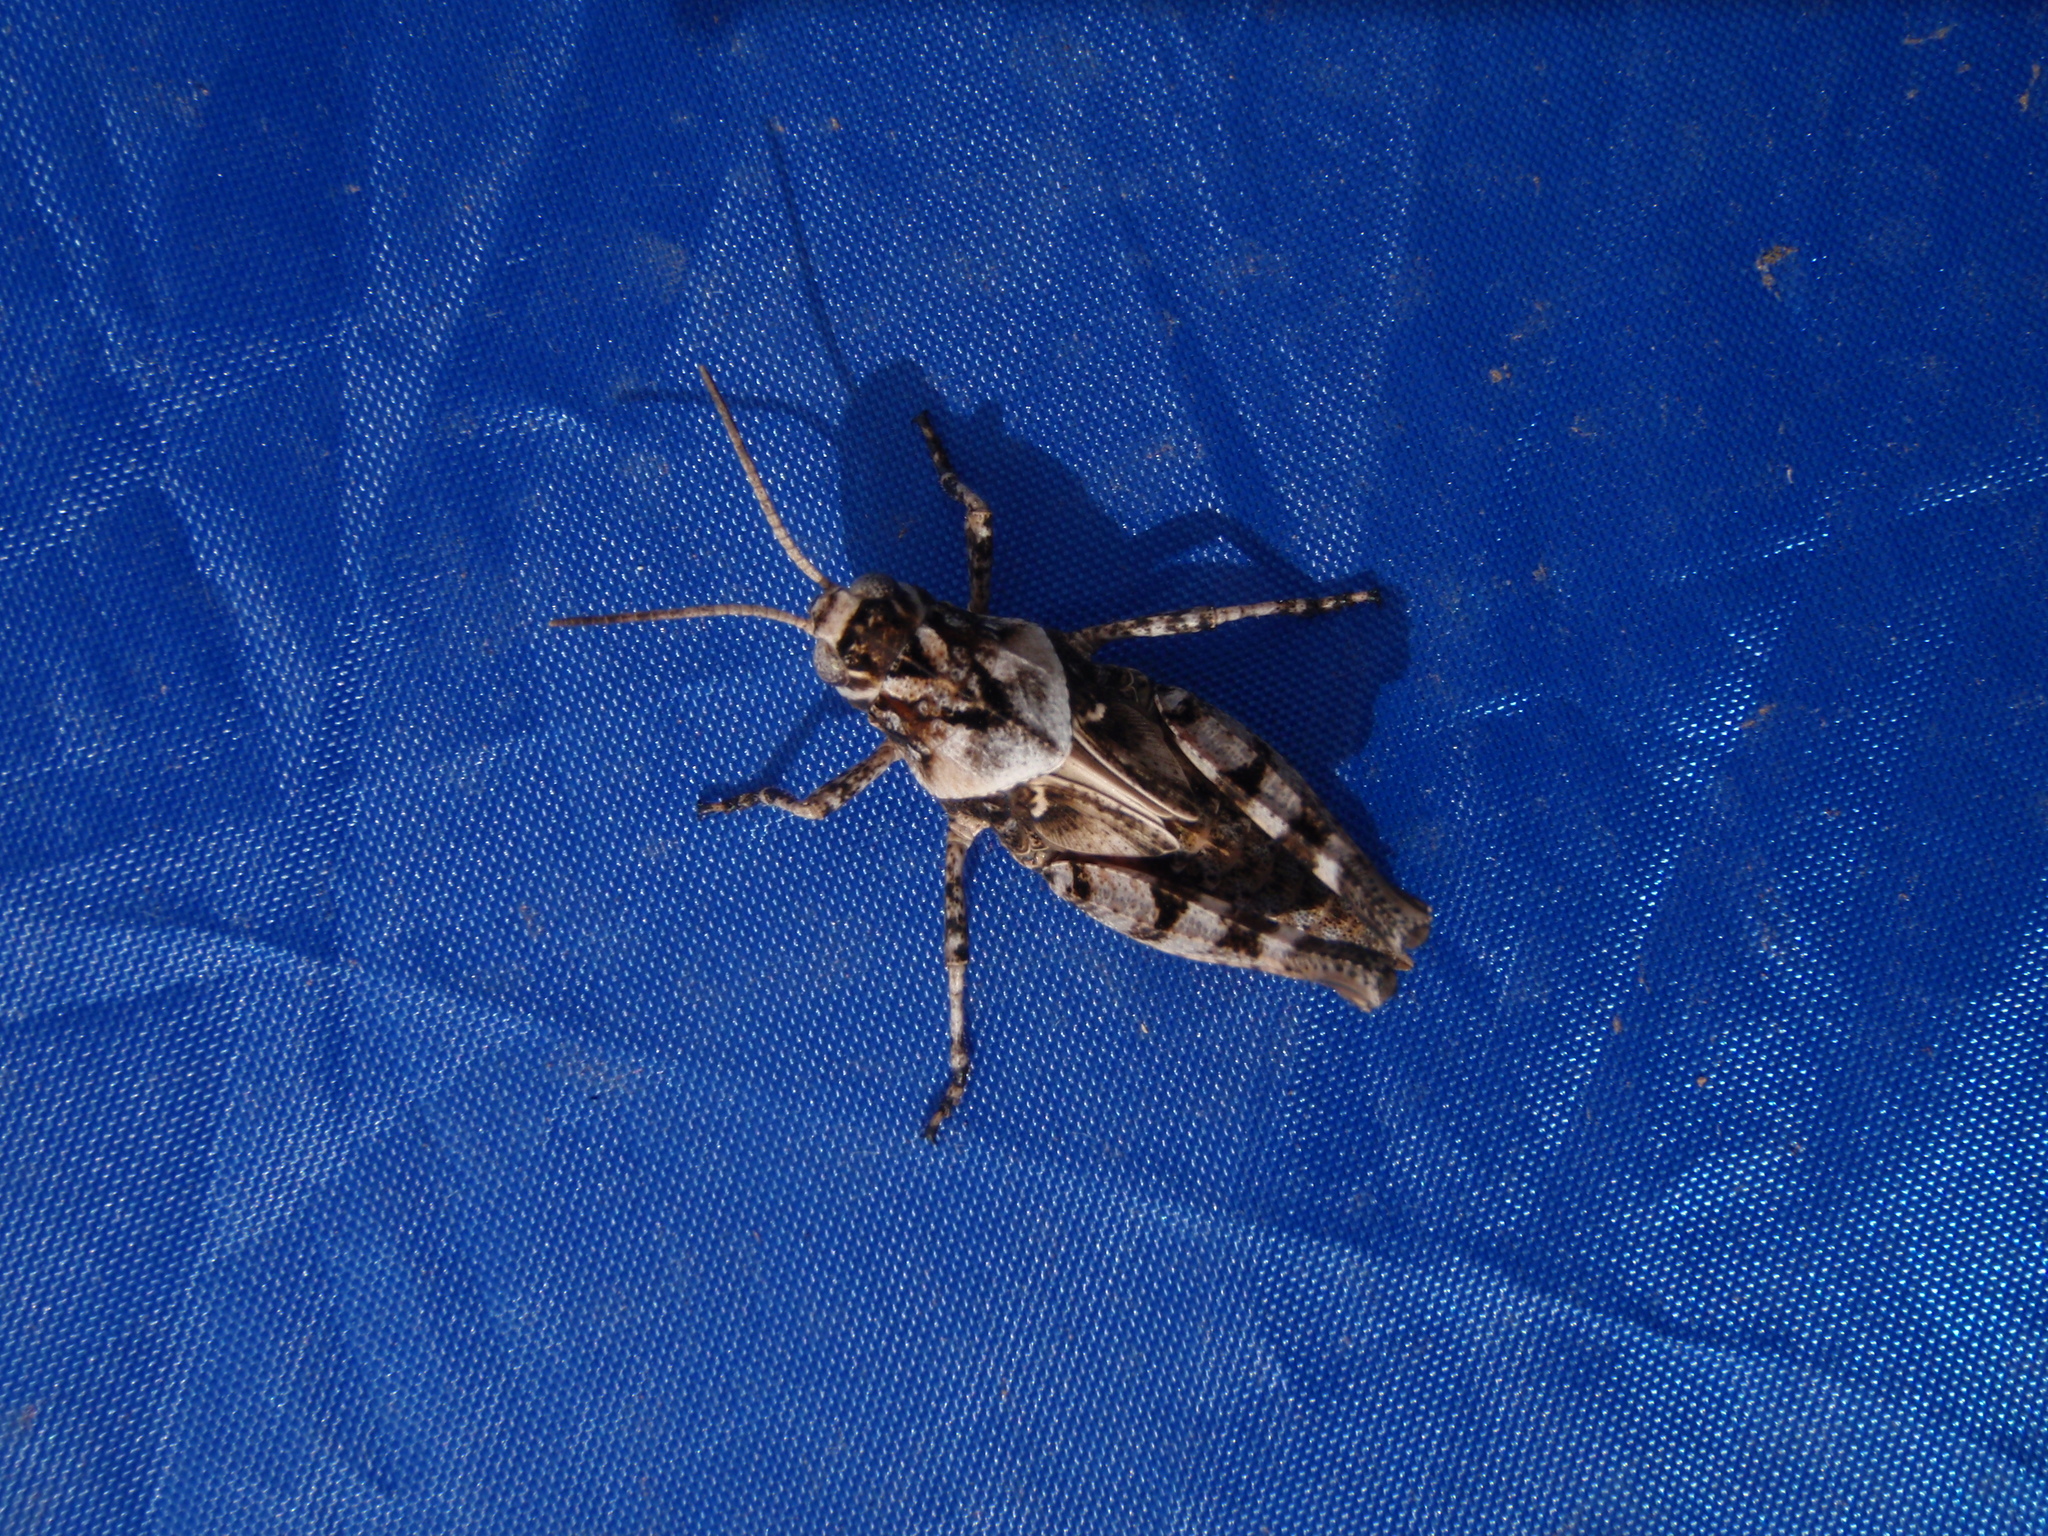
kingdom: Animalia
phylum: Arthropoda
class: Insecta
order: Orthoptera
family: Acrididae
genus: Celes
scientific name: Celes skalozubovi
